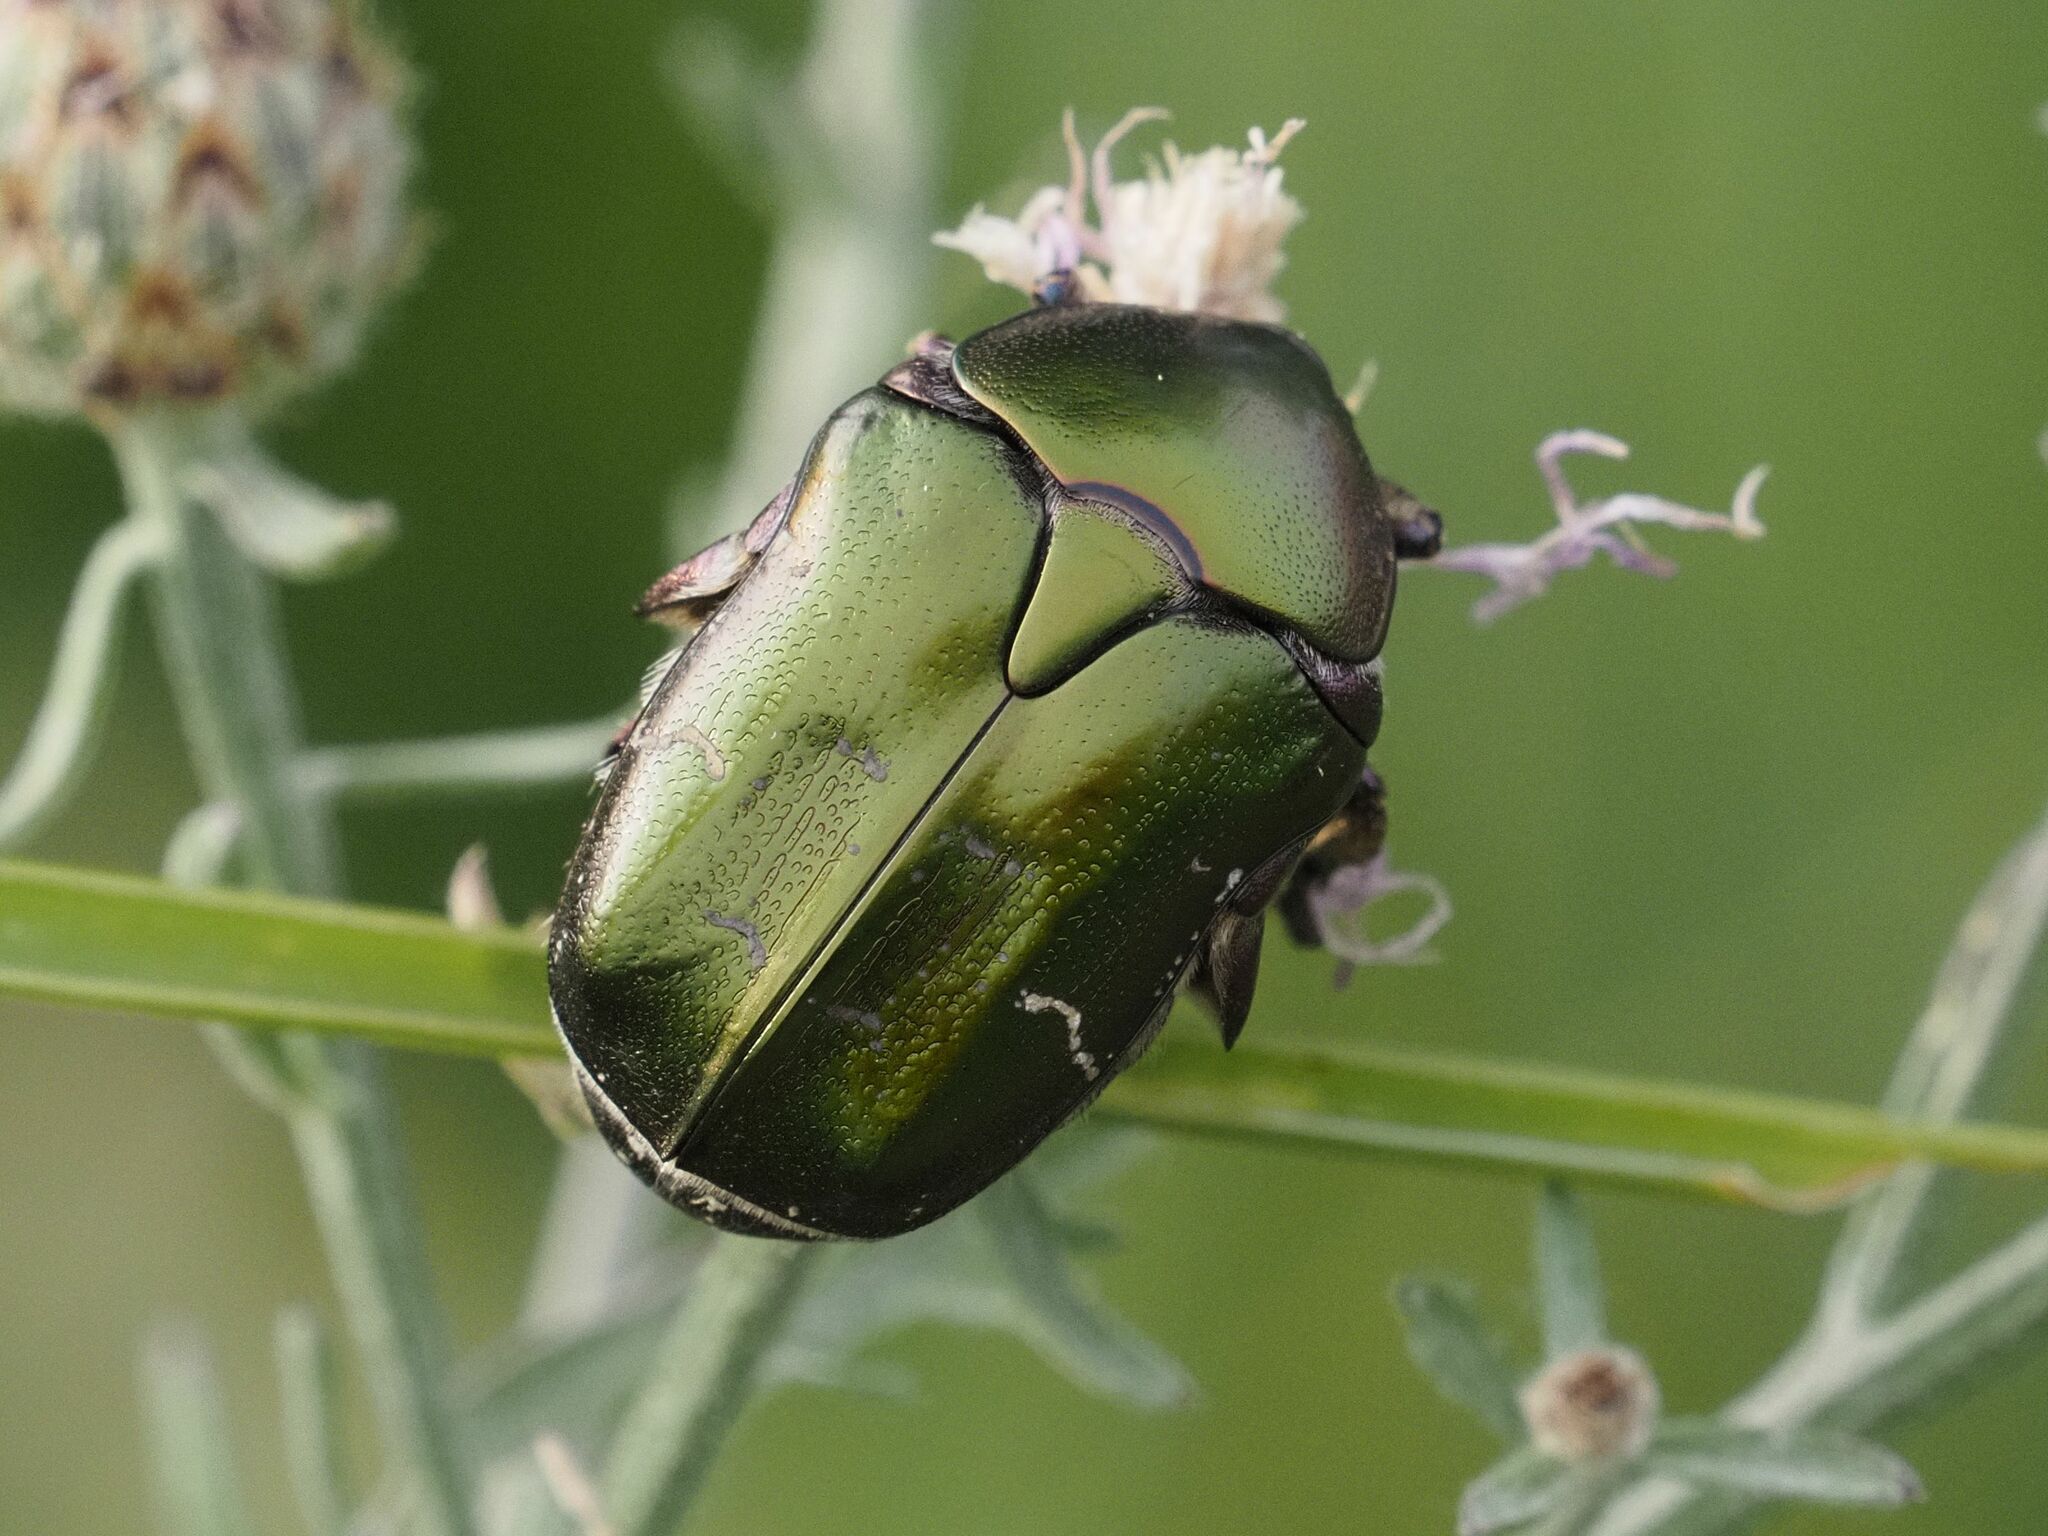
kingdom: Animalia
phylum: Arthropoda
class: Insecta
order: Coleoptera
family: Scarabaeidae
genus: Protaetia
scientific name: Protaetia cuprea
